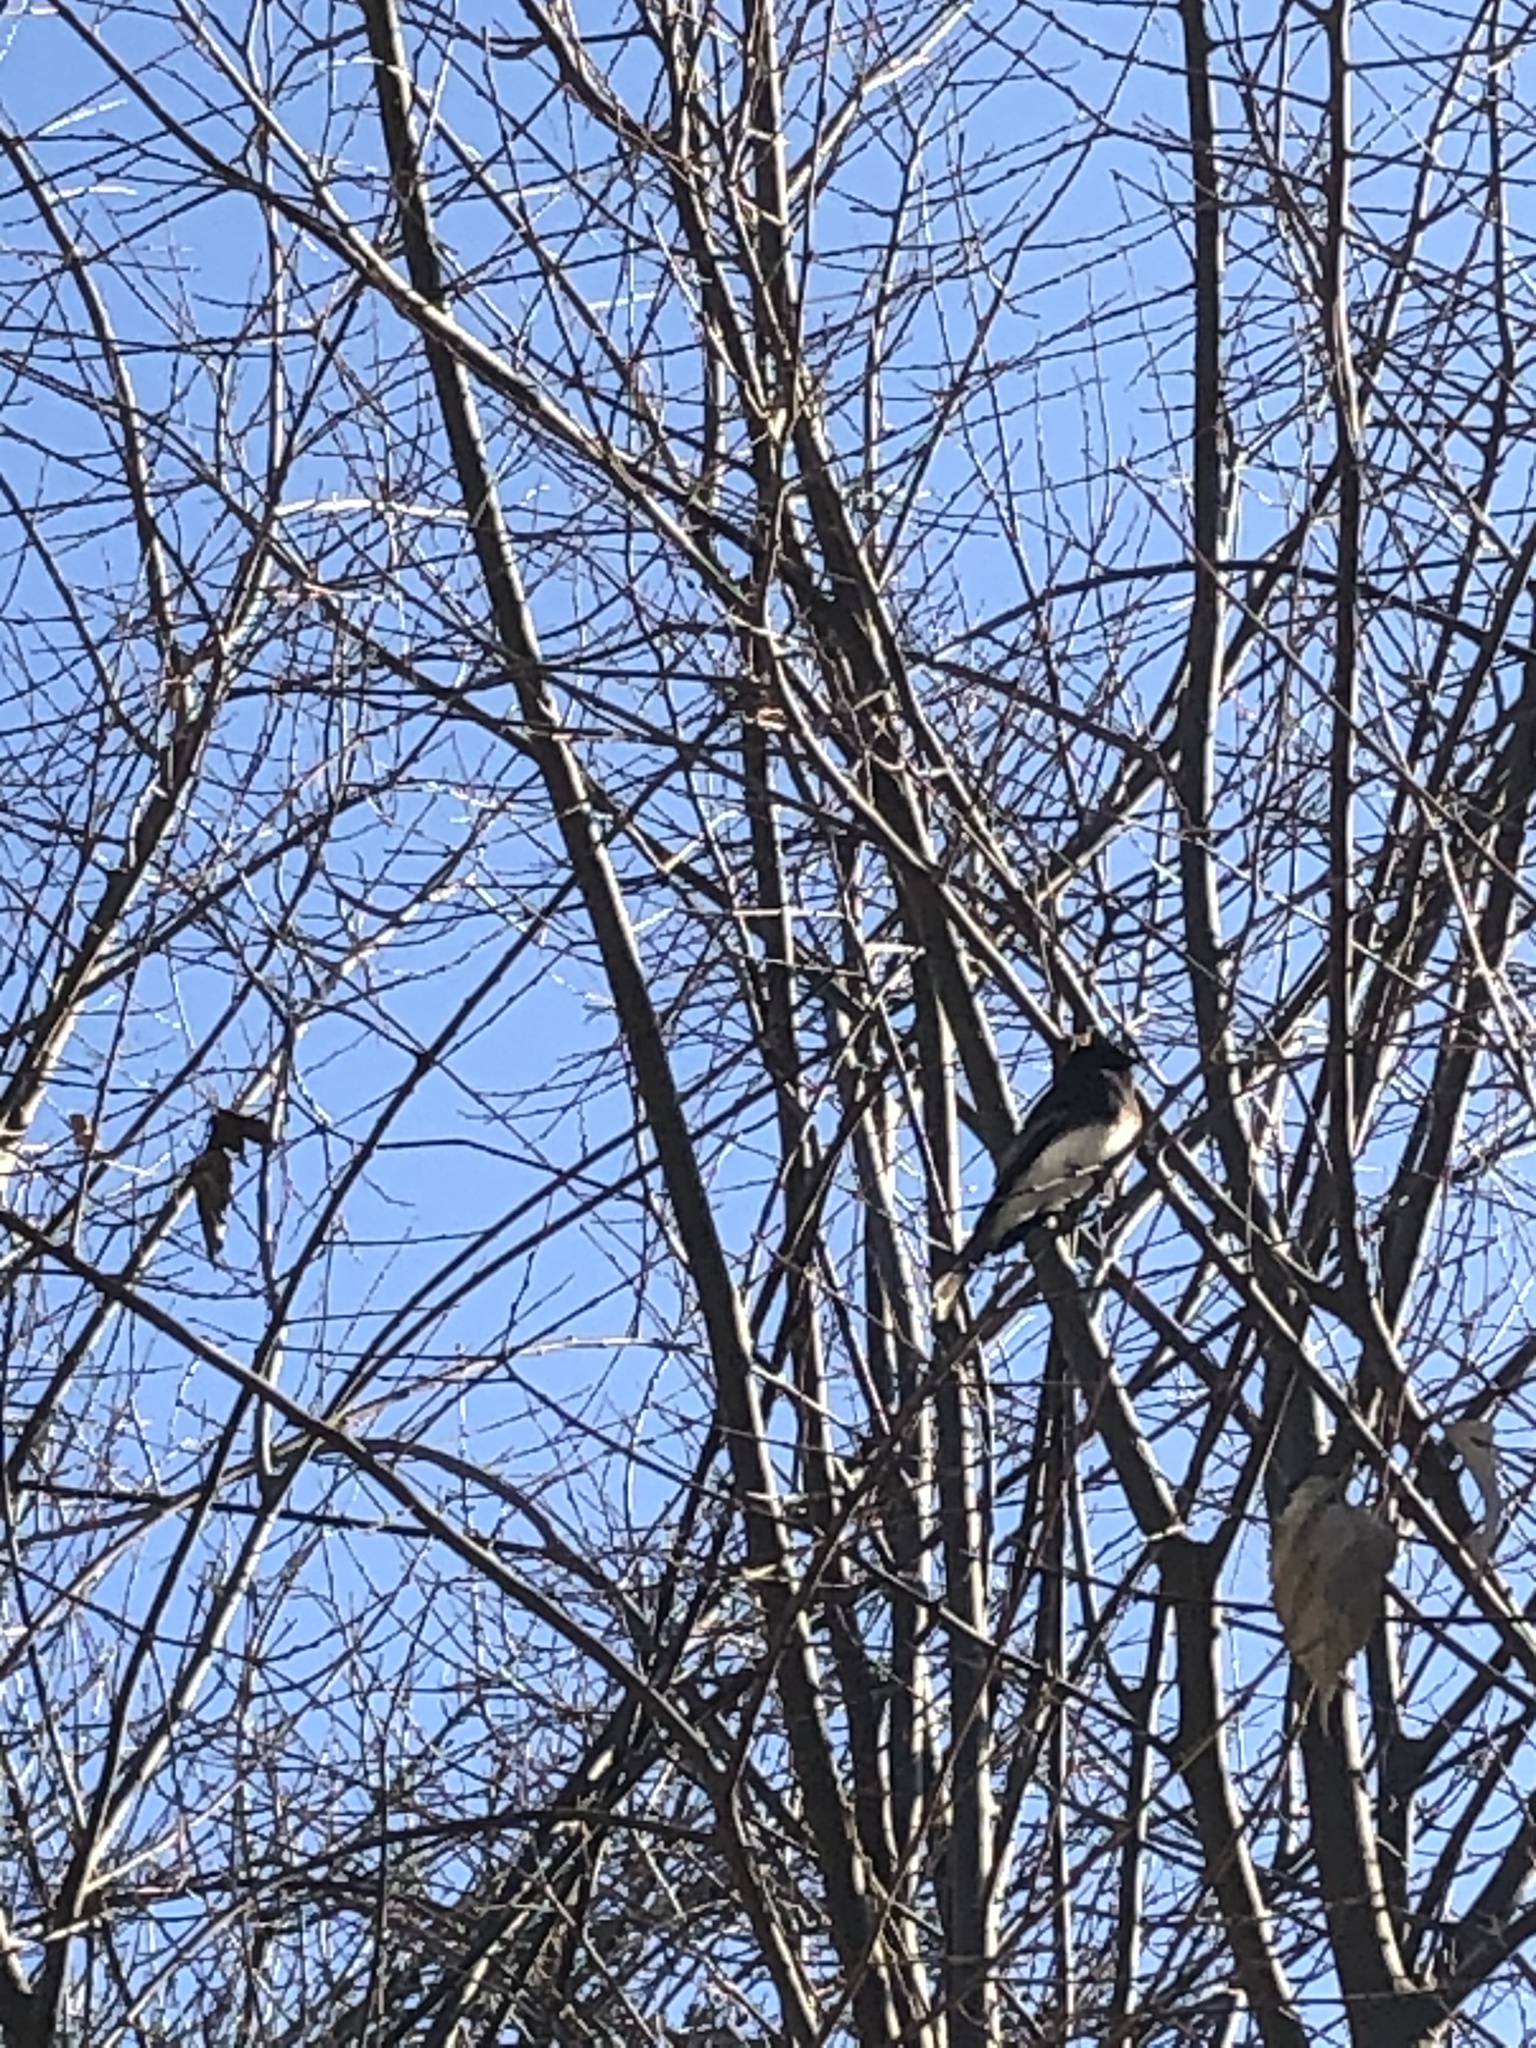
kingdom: Animalia
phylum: Chordata
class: Aves
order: Passeriformes
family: Tyrannidae
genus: Sayornis
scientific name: Sayornis nigricans
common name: Black phoebe
